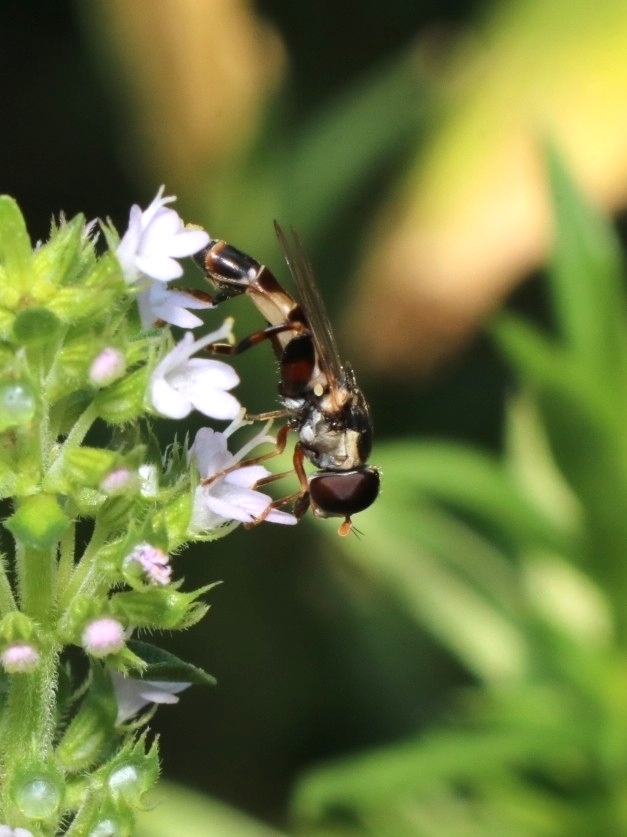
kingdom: Animalia
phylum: Arthropoda
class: Insecta
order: Diptera
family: Syrphidae
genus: Syritta
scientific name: Syritta pipiens
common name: Hover fly
